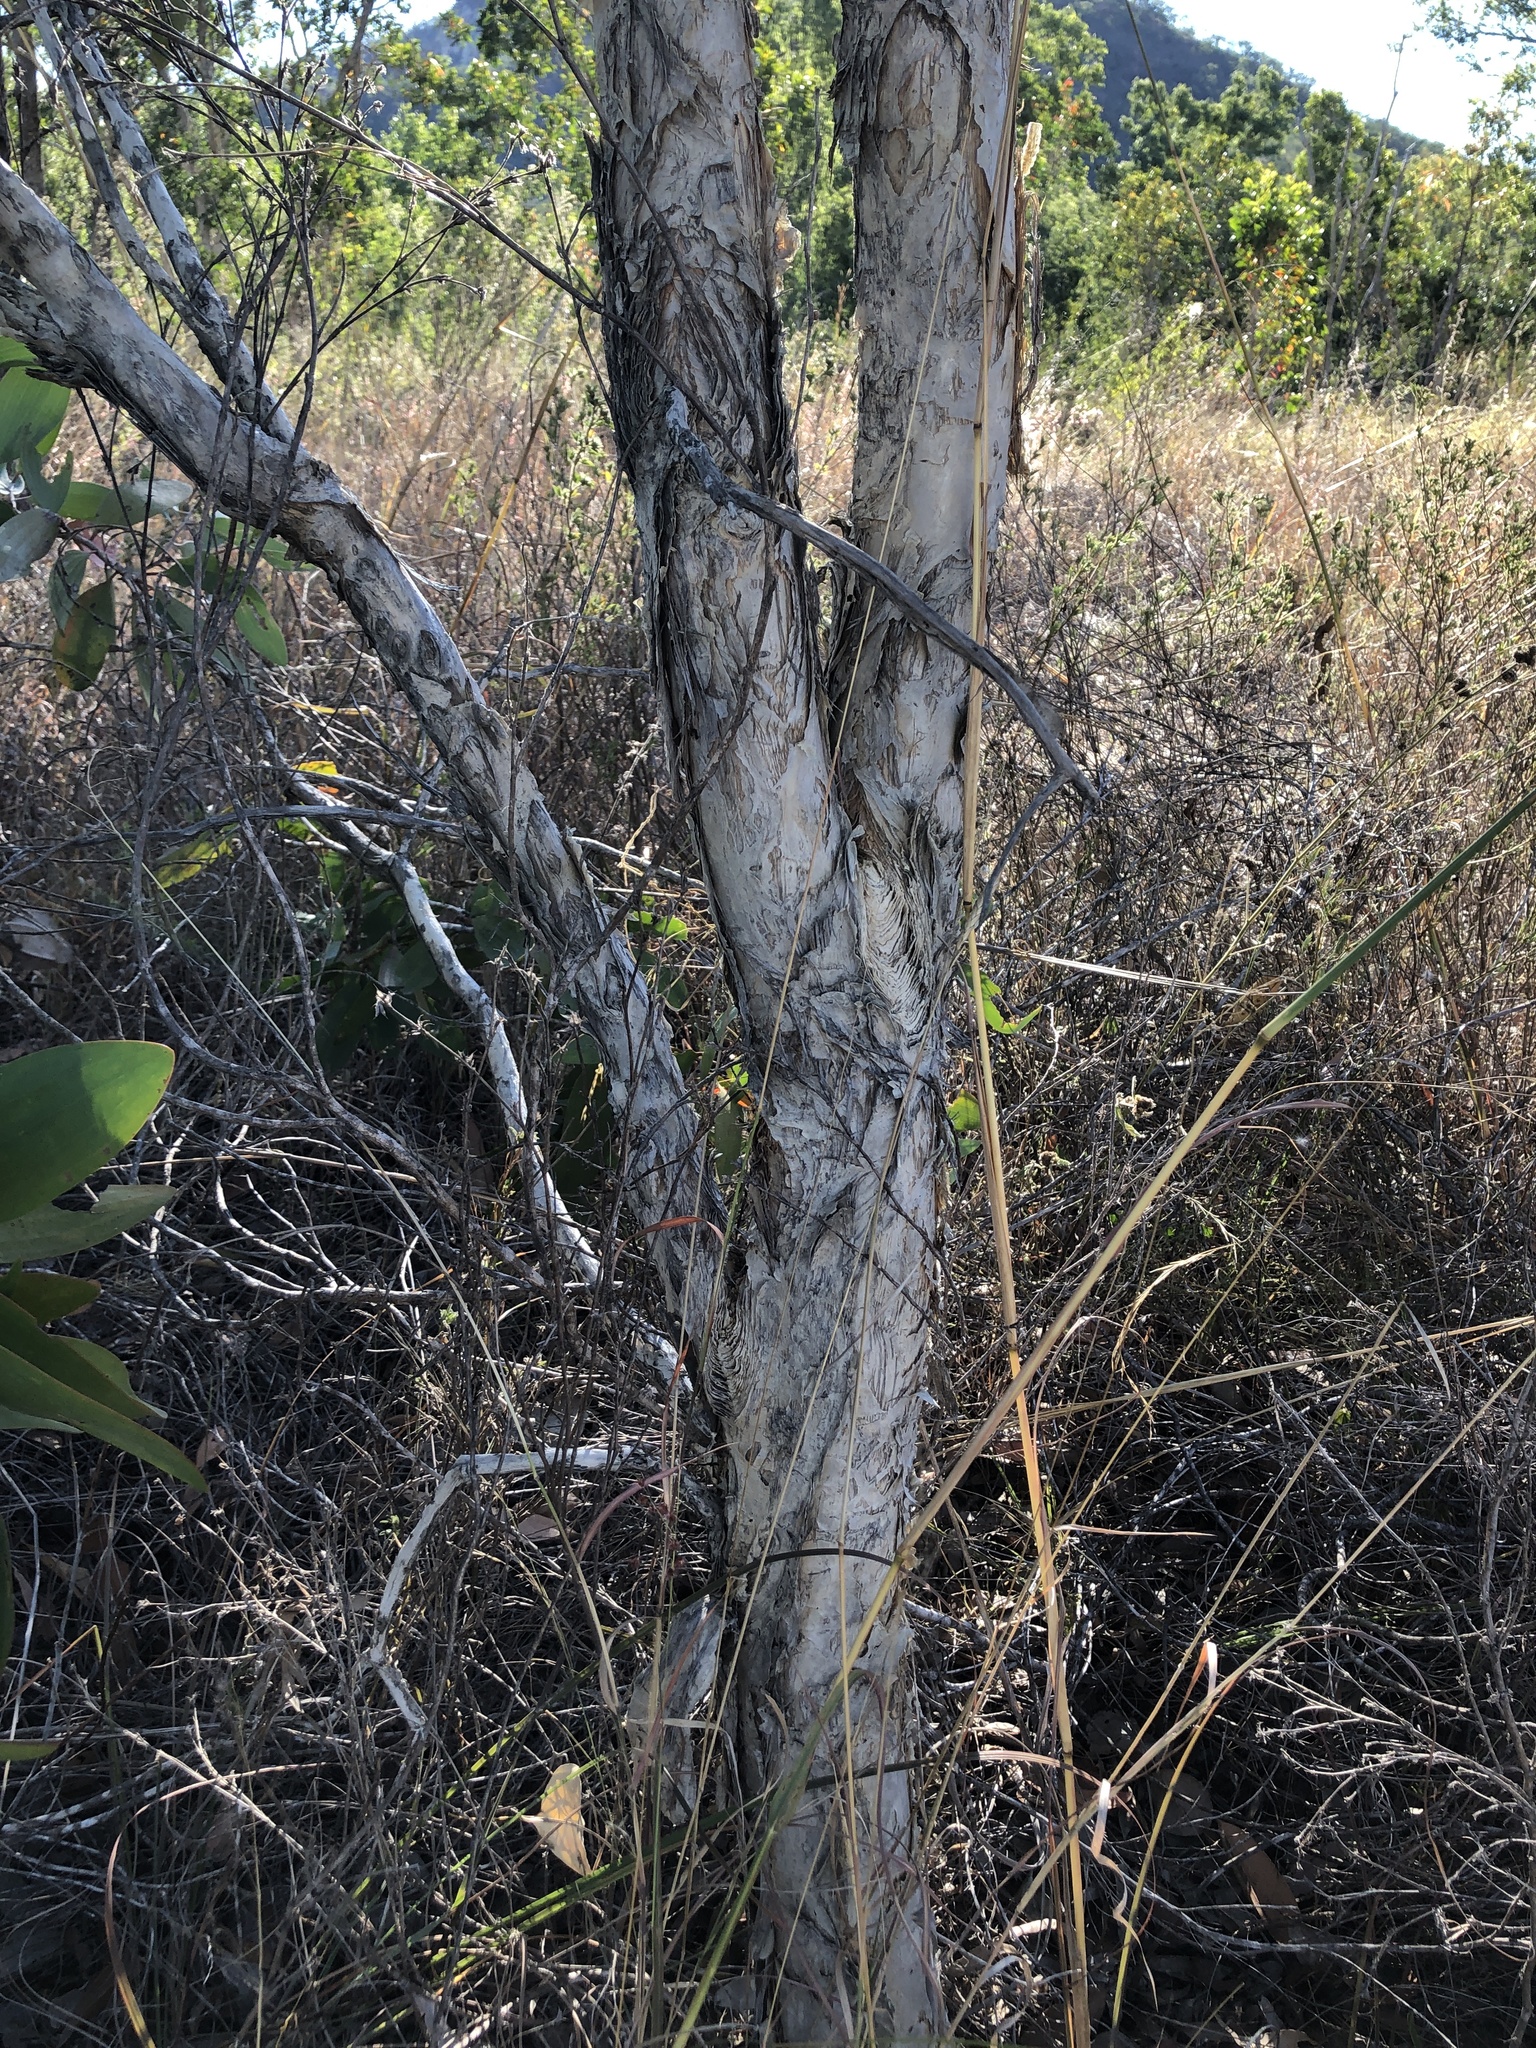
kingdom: Plantae
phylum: Tracheophyta
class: Magnoliopsida
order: Myrtales
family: Myrtaceae
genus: Melaleuca
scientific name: Melaleuca viridiflora
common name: Brown-leaved paperbark
